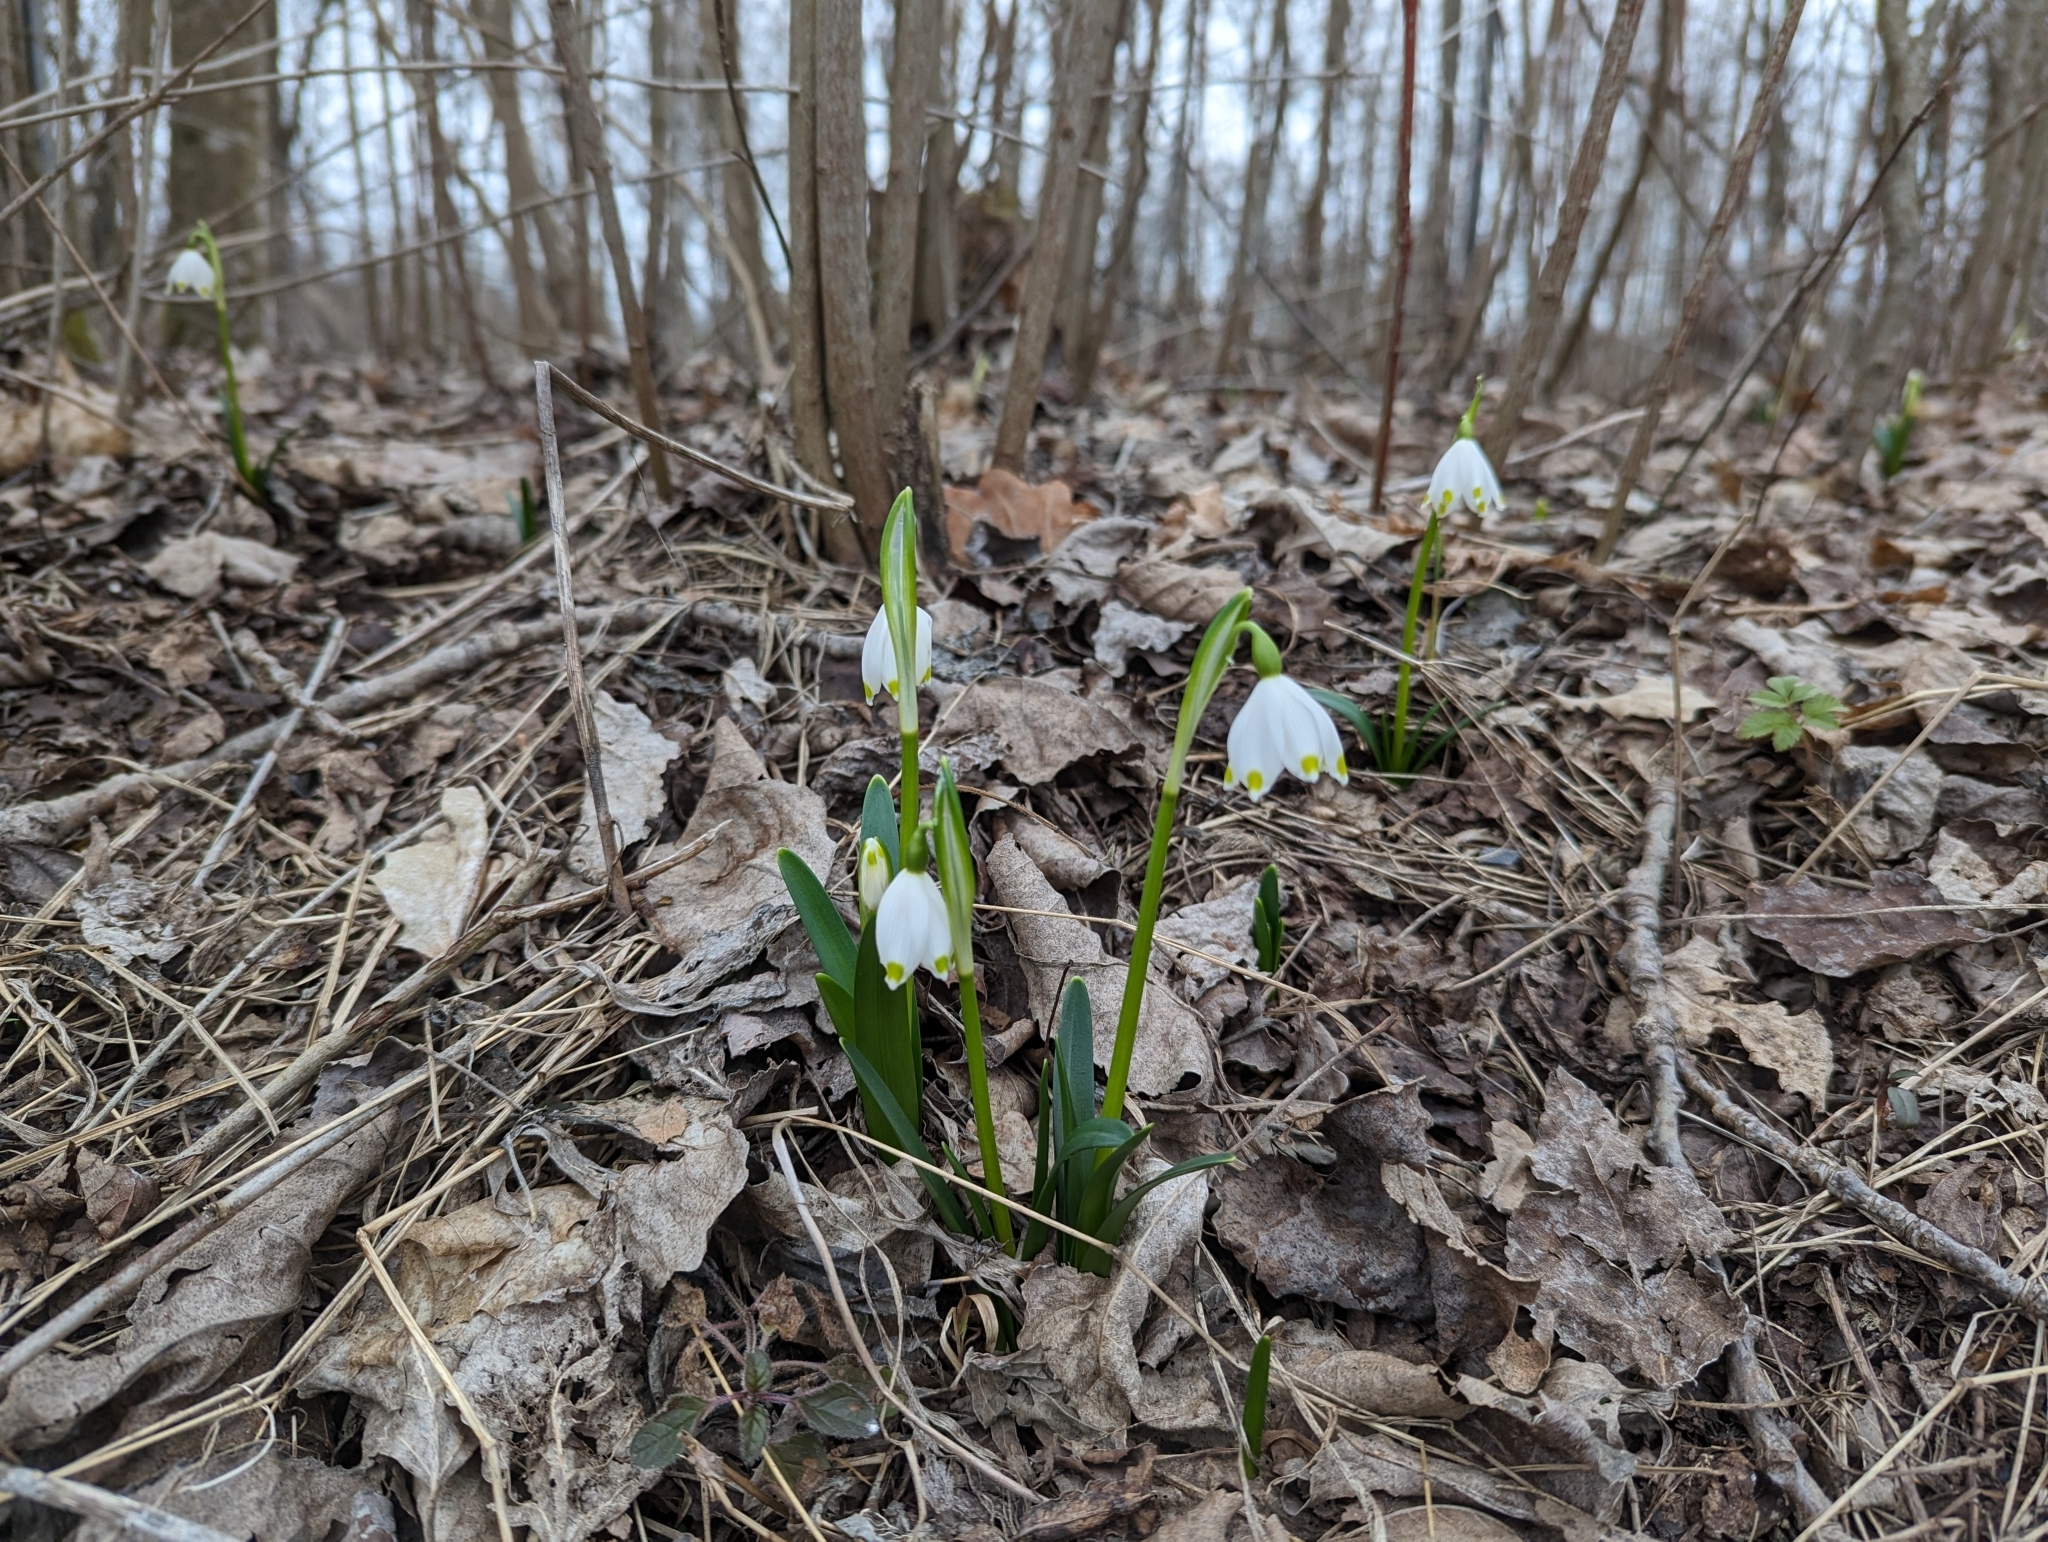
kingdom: Plantae
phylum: Tracheophyta
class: Liliopsida
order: Asparagales
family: Amaryllidaceae
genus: Leucojum
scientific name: Leucojum vernum
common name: Spring snowflake
